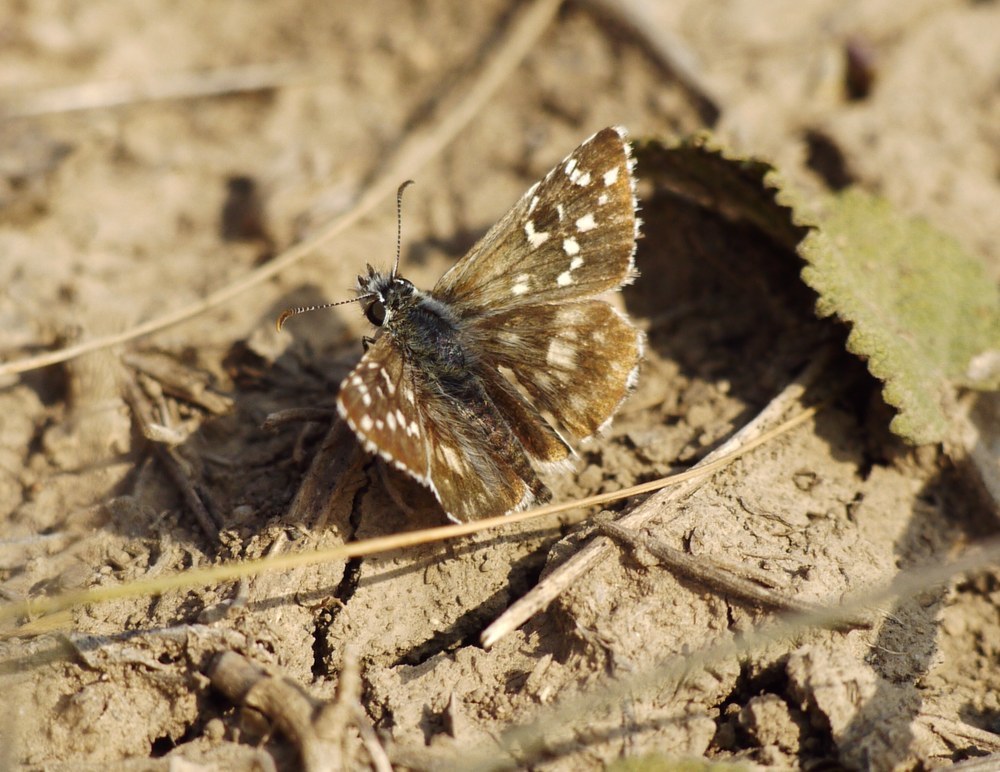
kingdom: Animalia
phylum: Arthropoda
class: Insecta
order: Lepidoptera
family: Hesperiidae
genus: Pyrgus
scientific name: Pyrgus armoricanus
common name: Oberthür's grizzled skipper
